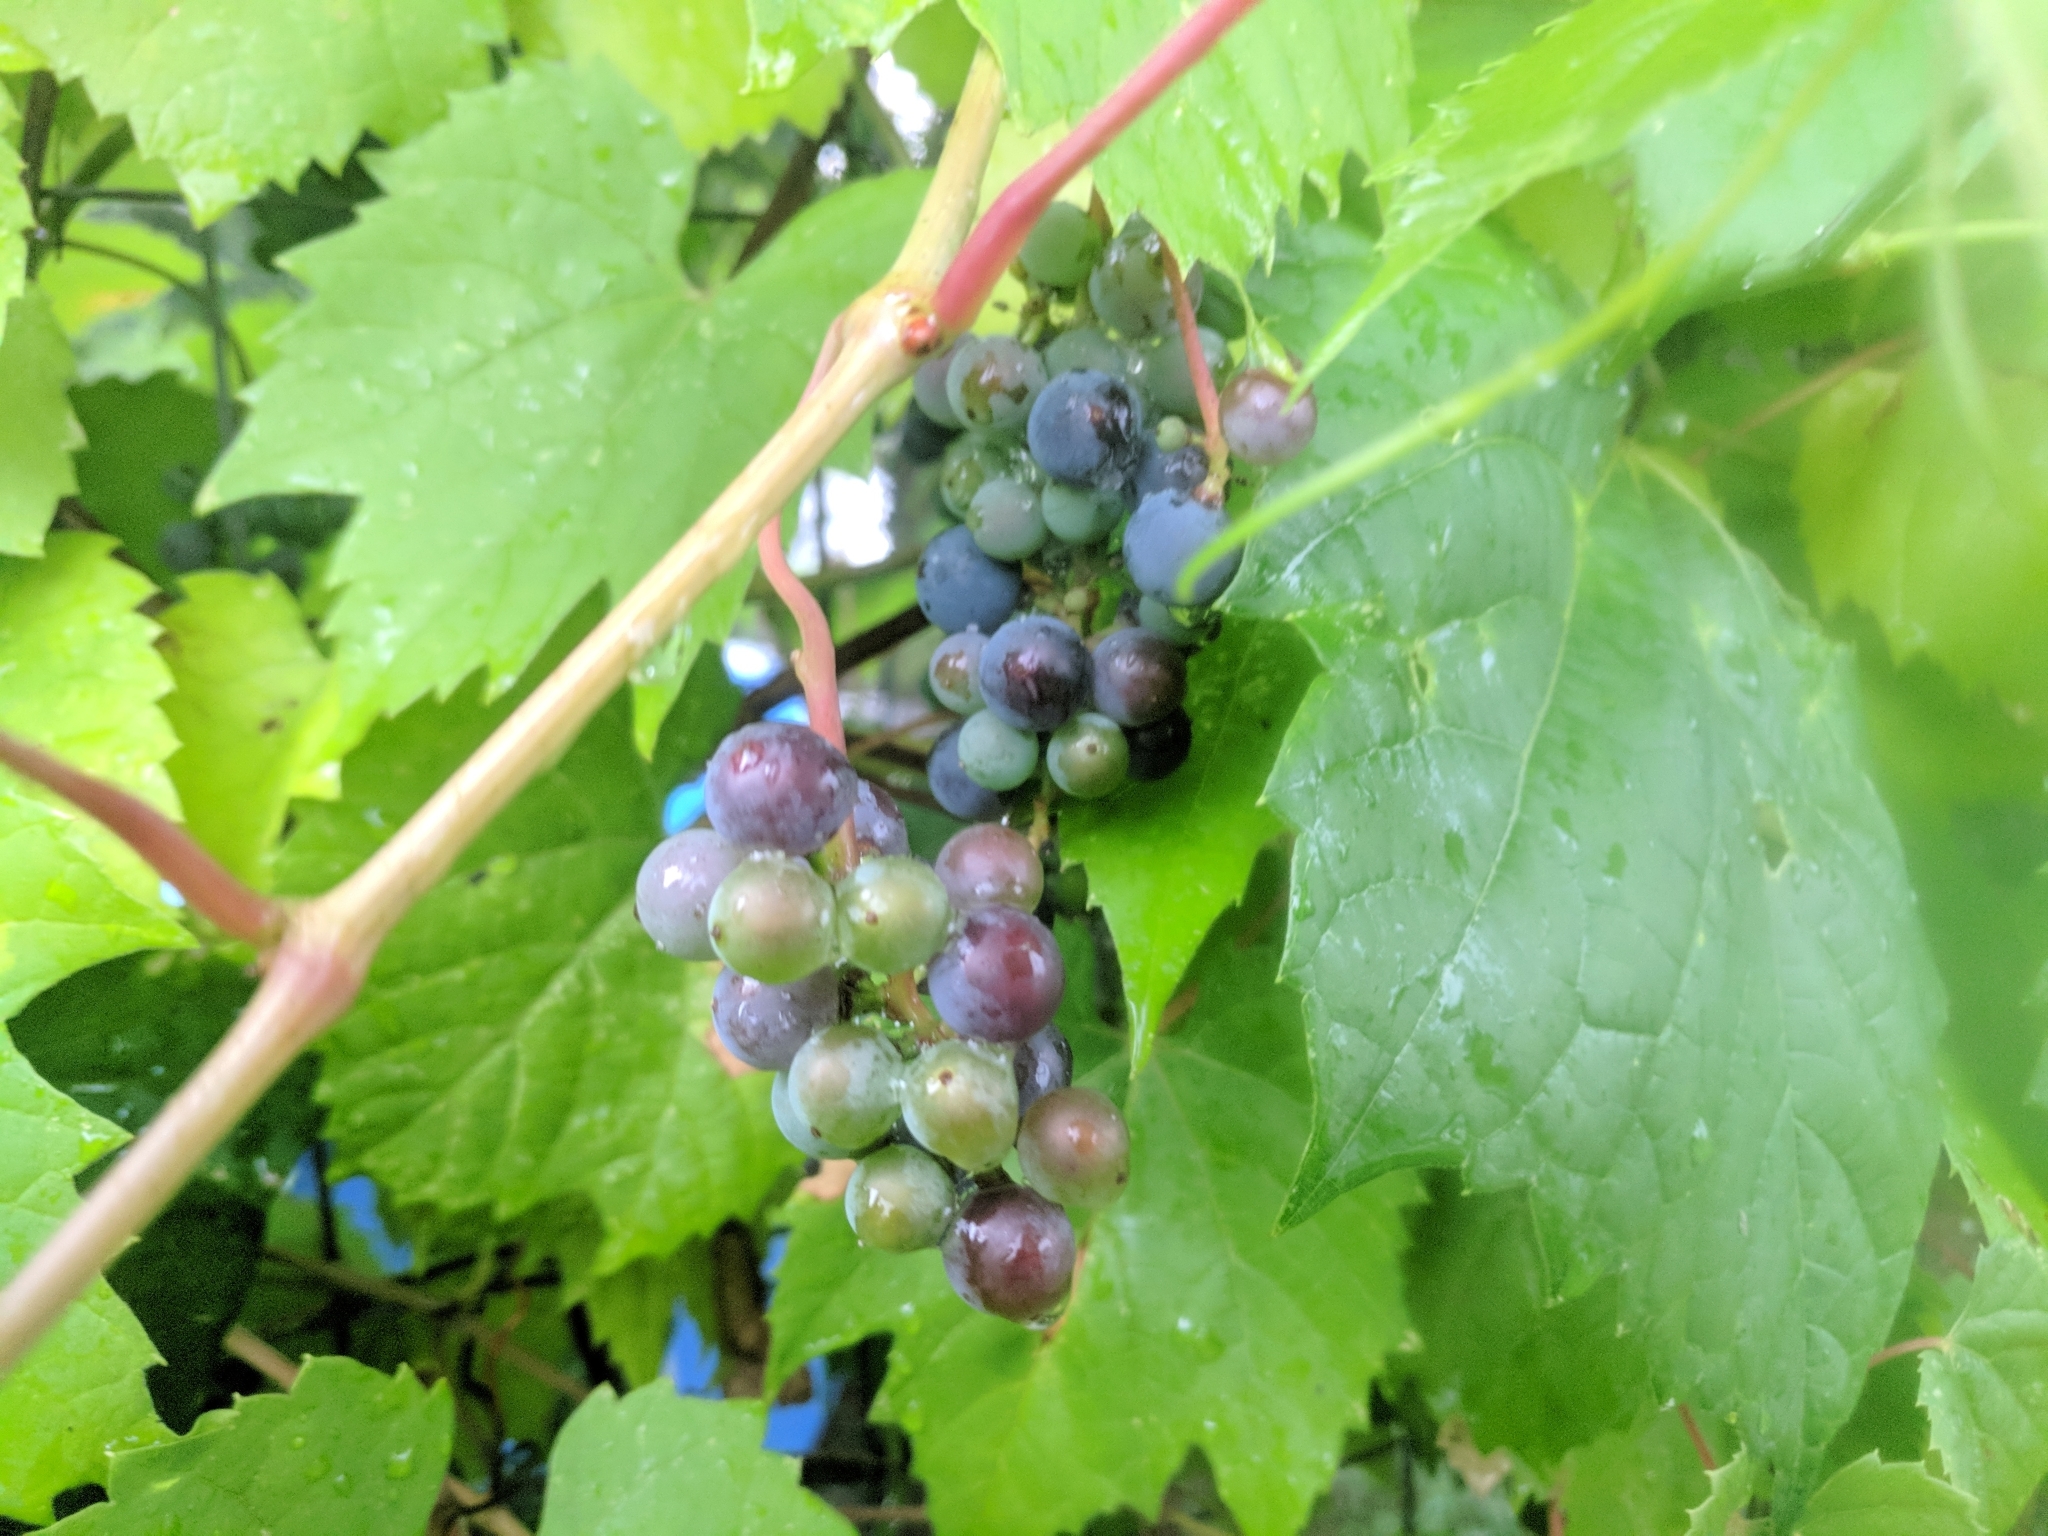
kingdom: Plantae
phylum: Tracheophyta
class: Magnoliopsida
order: Vitales
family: Vitaceae
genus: Vitis
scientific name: Vitis riparia
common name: Frost grape
